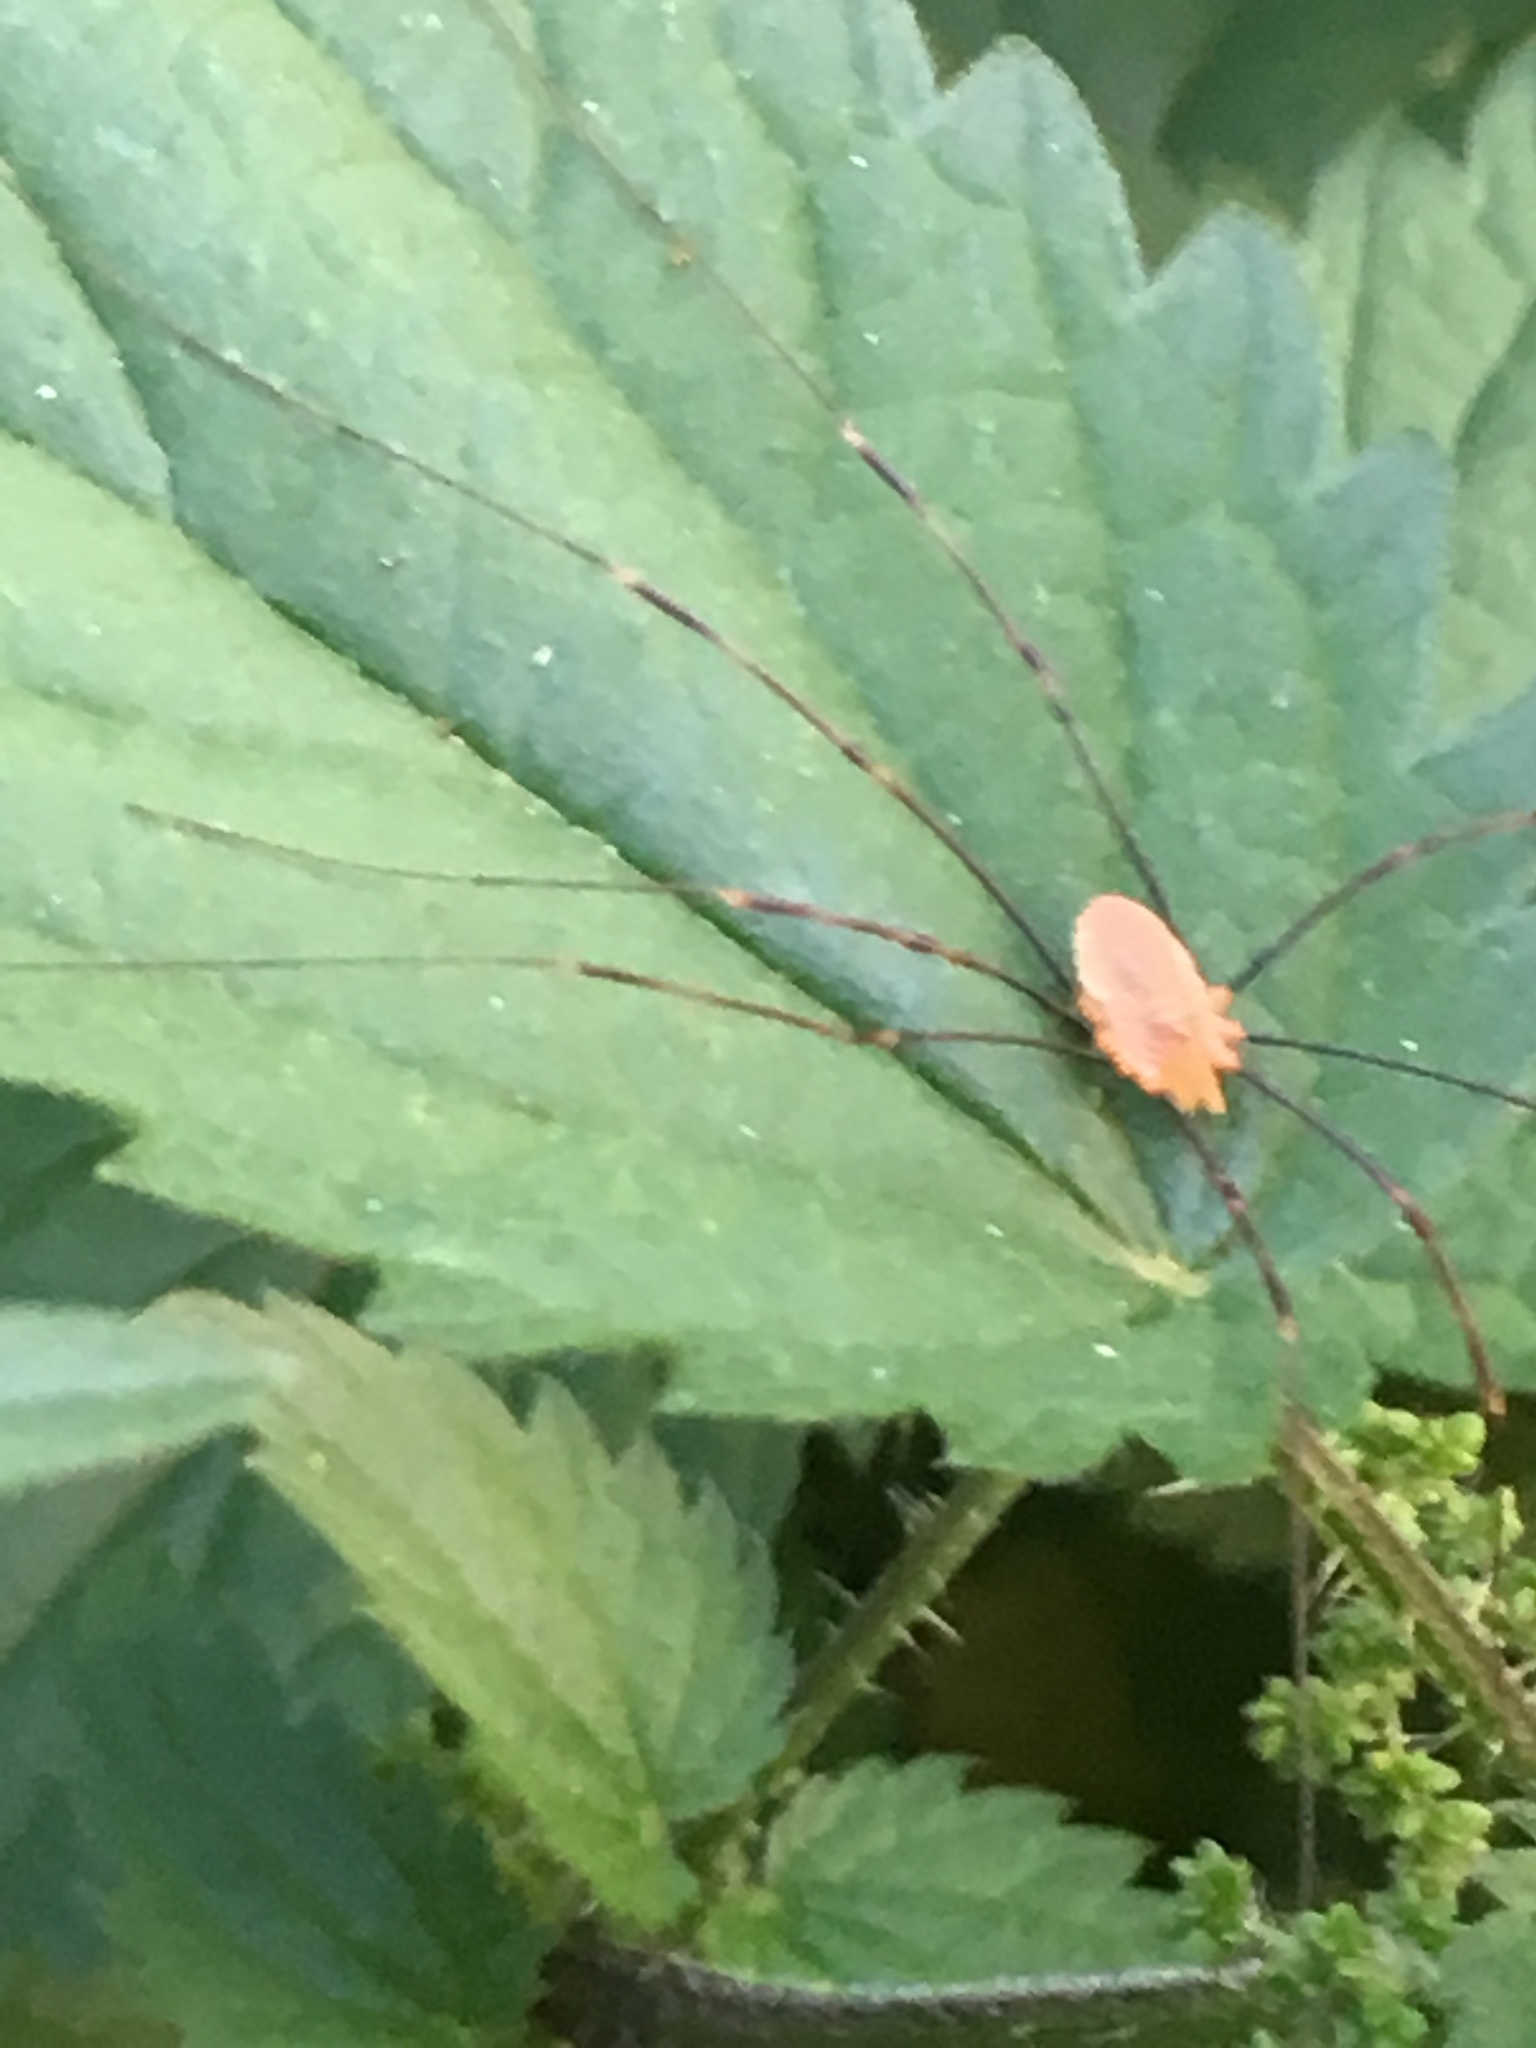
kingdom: Animalia
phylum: Arthropoda
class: Arachnida
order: Opiliones
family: Phalangiidae
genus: Opilio
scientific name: Opilio canestrinii
